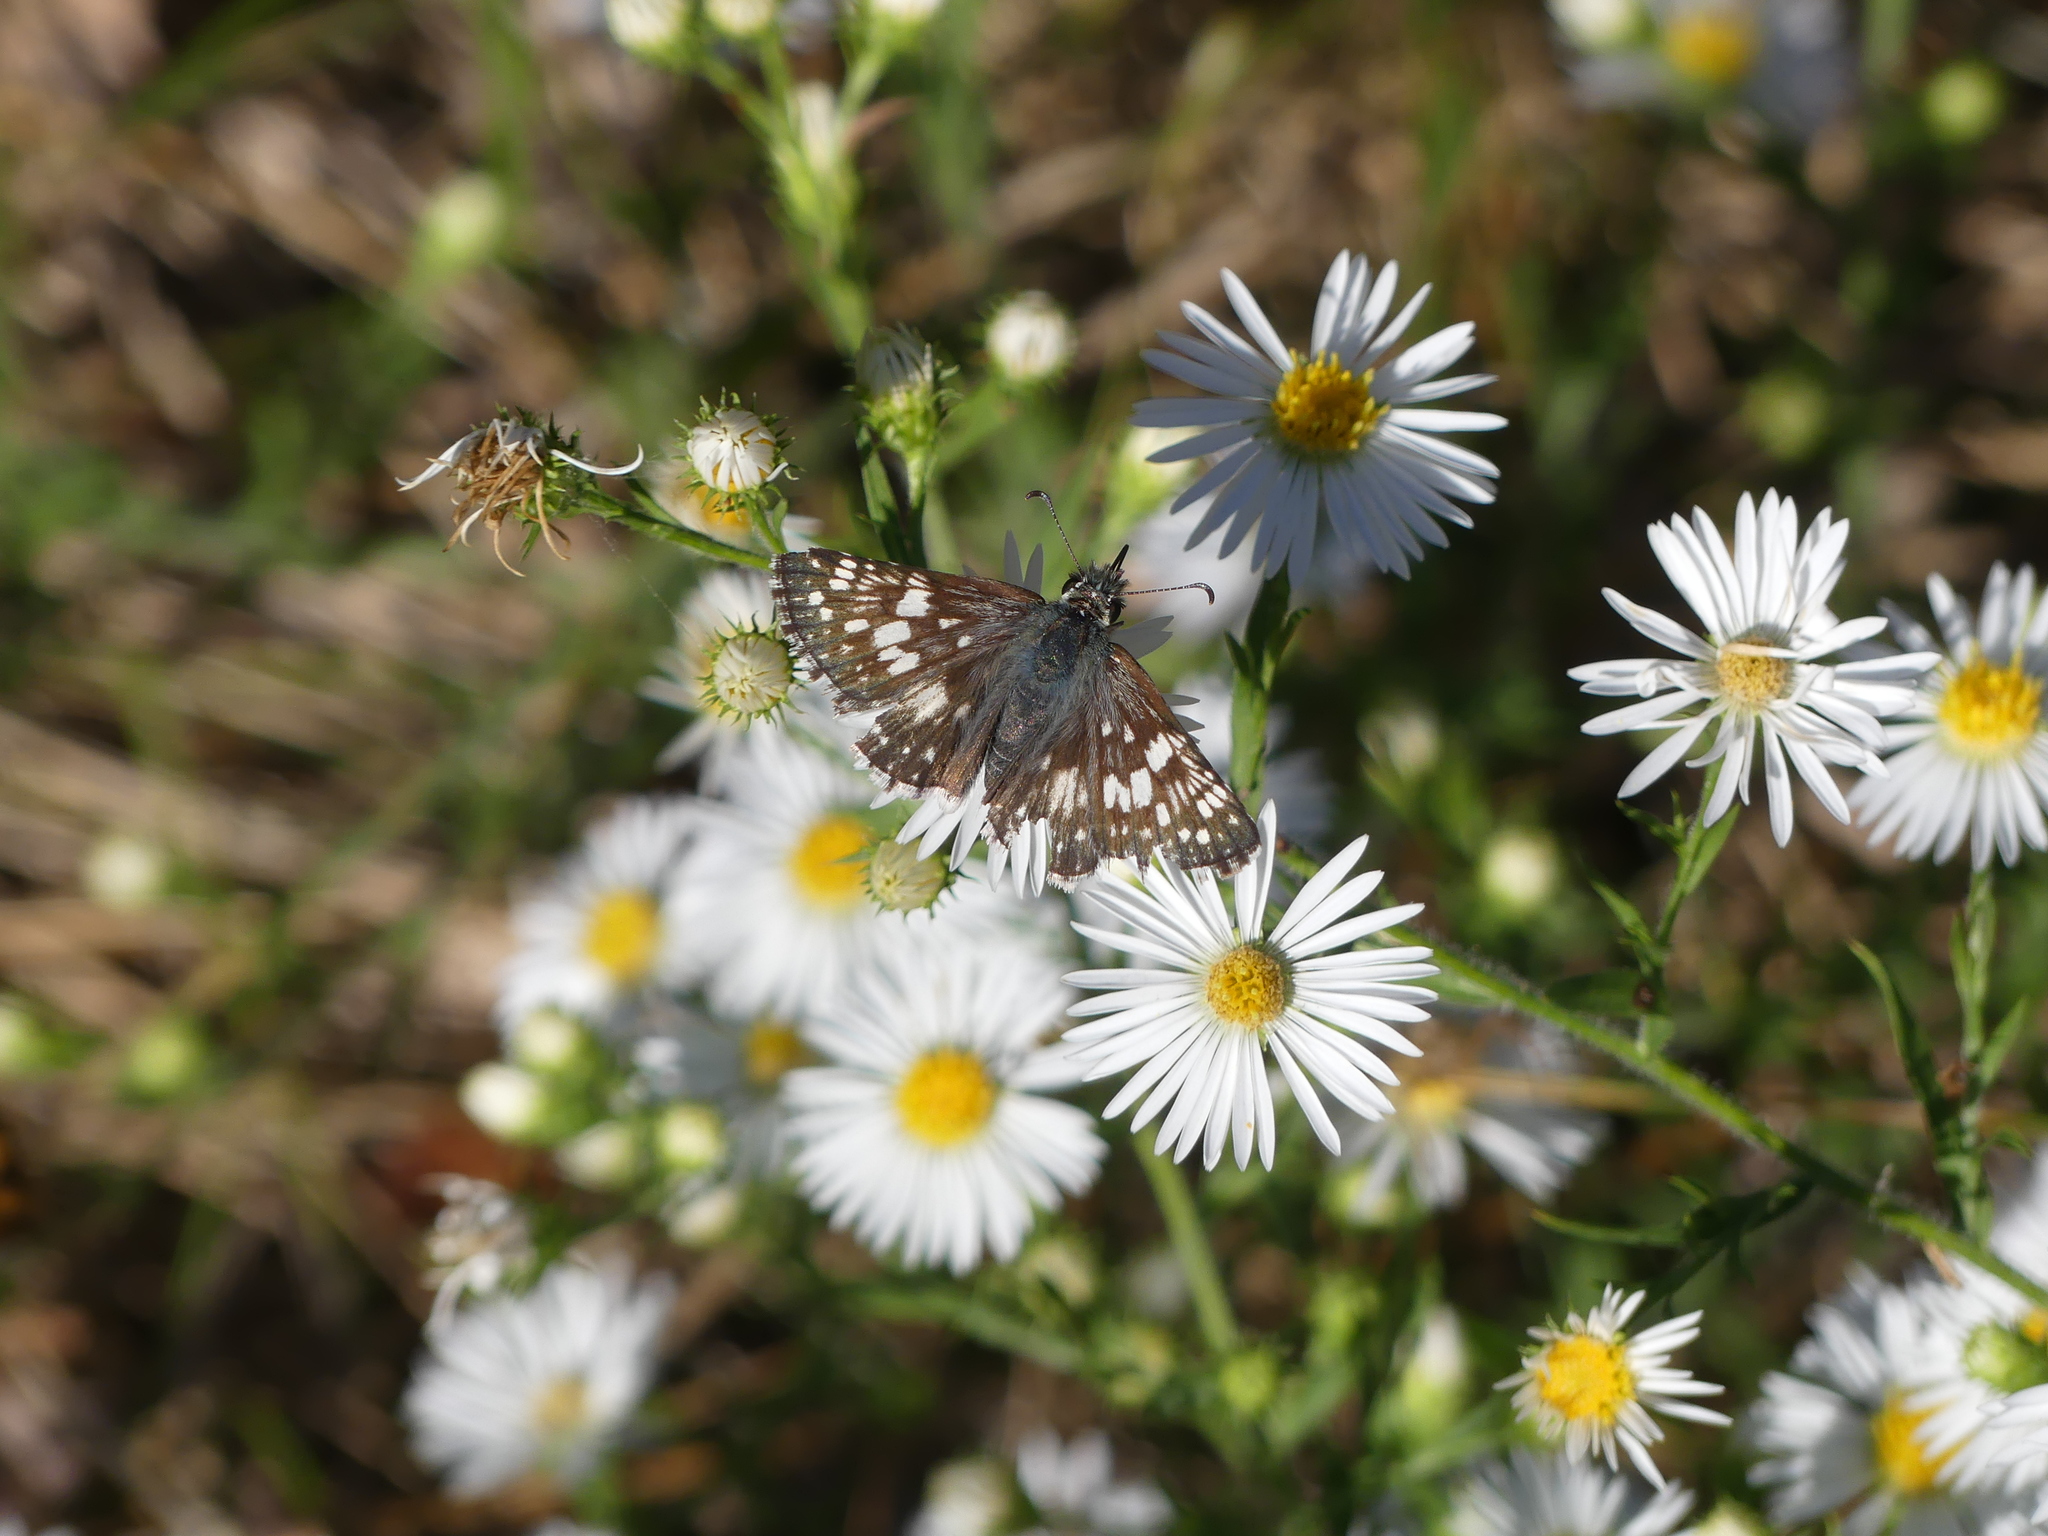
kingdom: Animalia
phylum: Arthropoda
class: Insecta
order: Lepidoptera
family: Hesperiidae
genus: Burnsius
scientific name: Burnsius communis
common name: Common checkered-skipper
